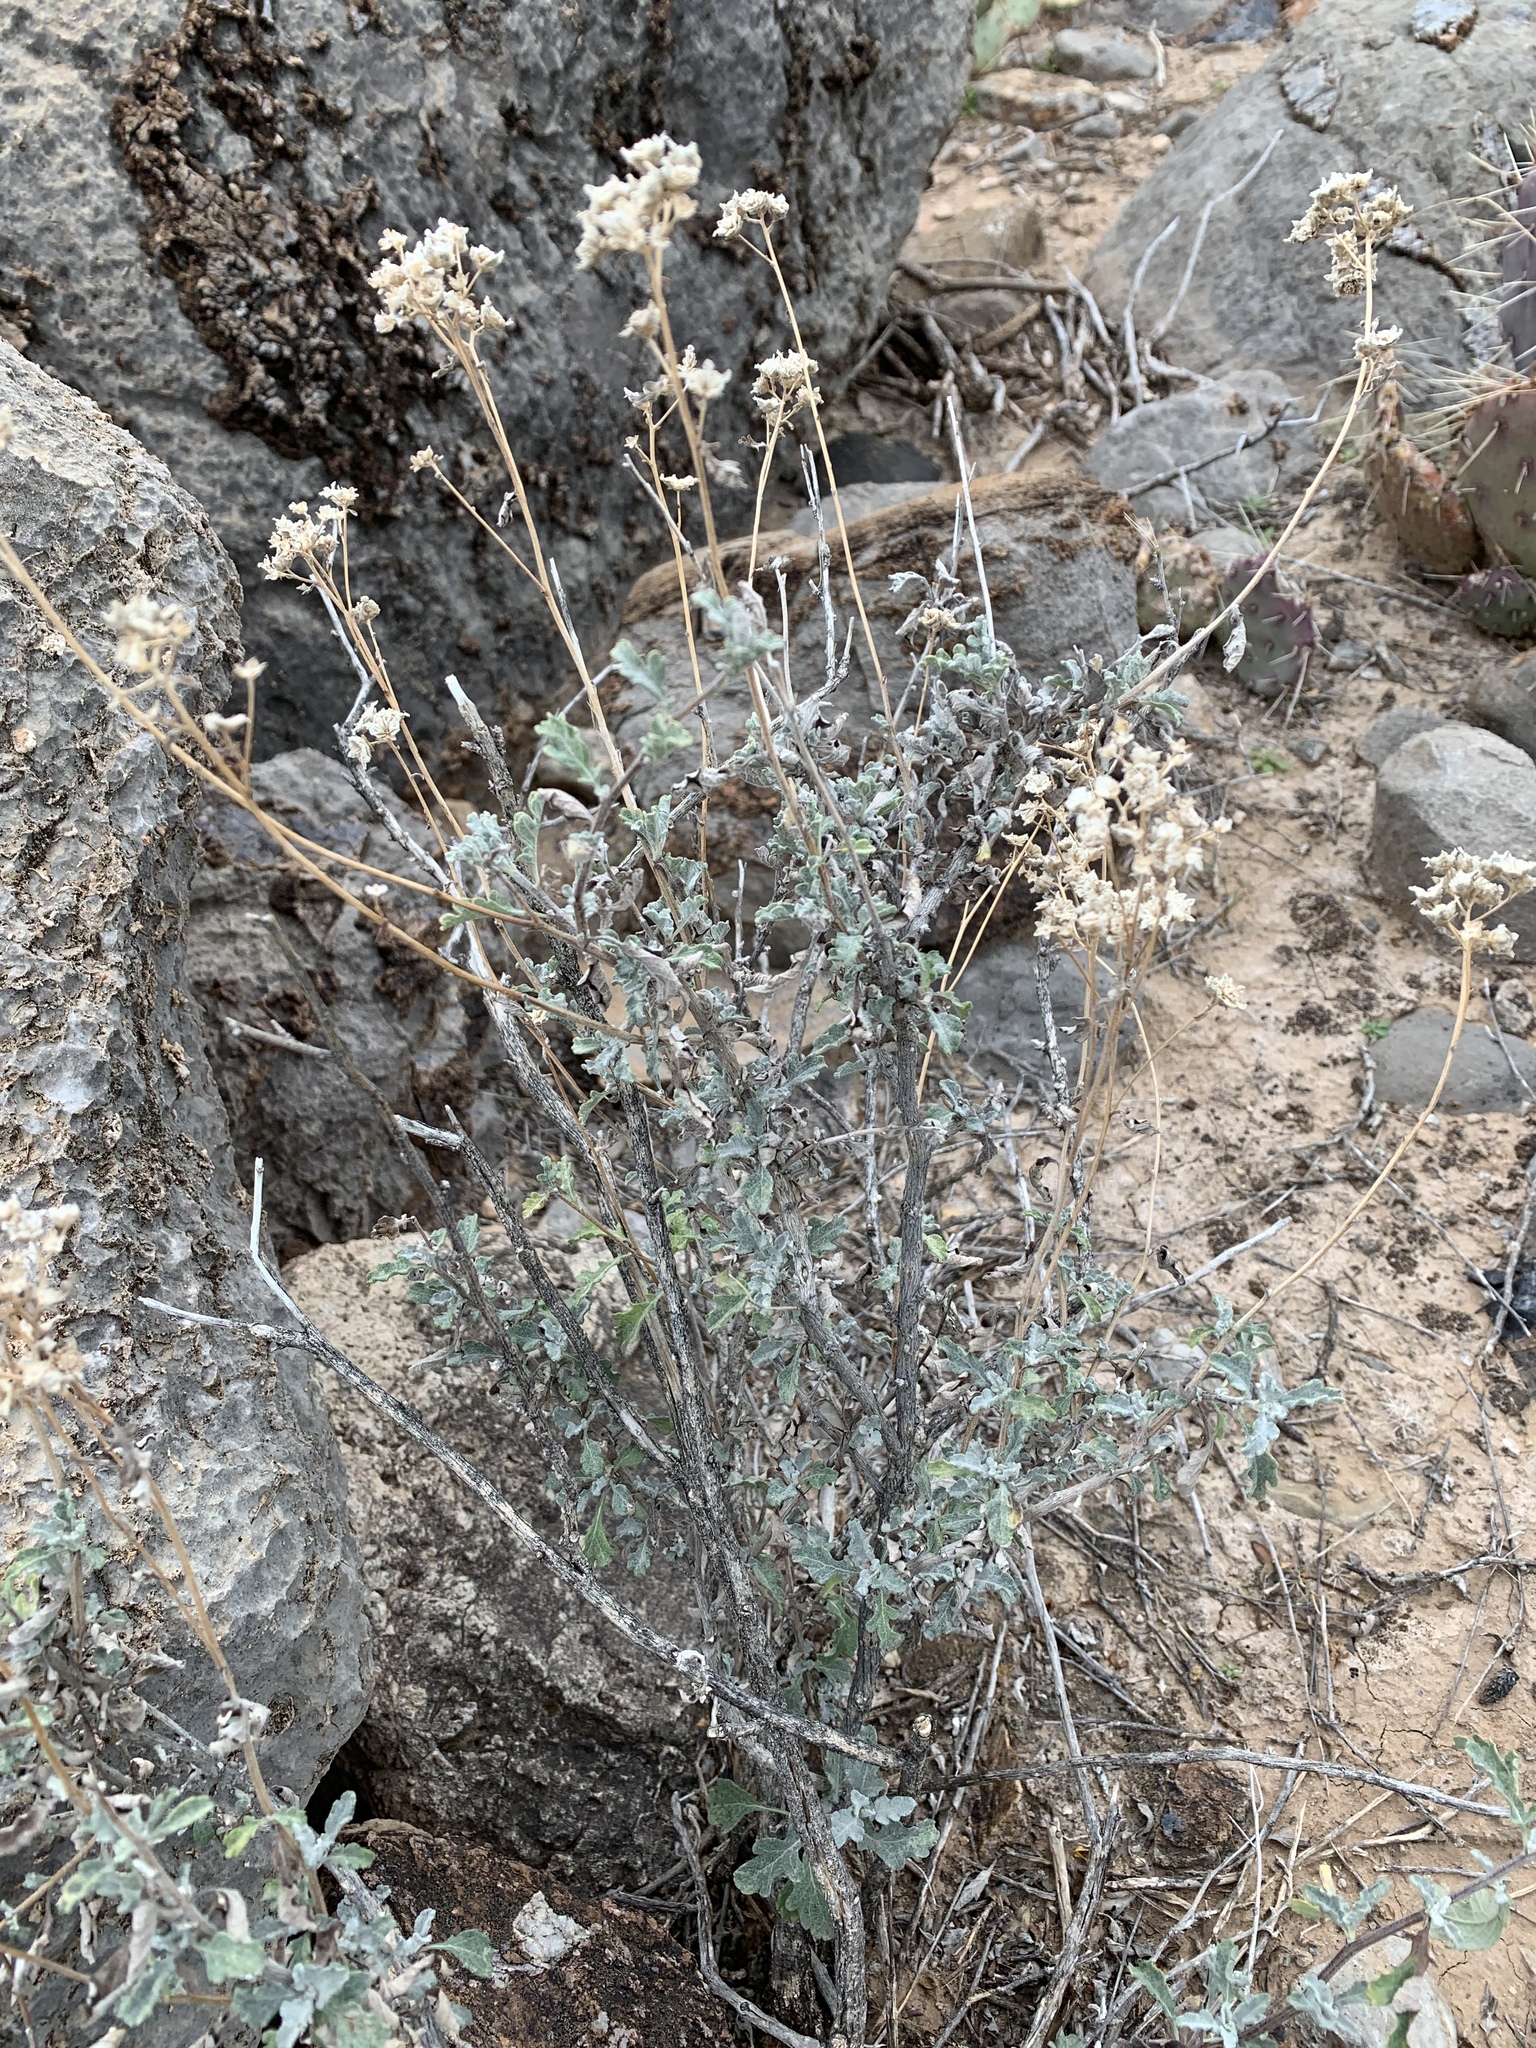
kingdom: Plantae
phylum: Tracheophyta
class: Magnoliopsida
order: Asterales
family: Asteraceae
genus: Parthenium
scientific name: Parthenium incanum
